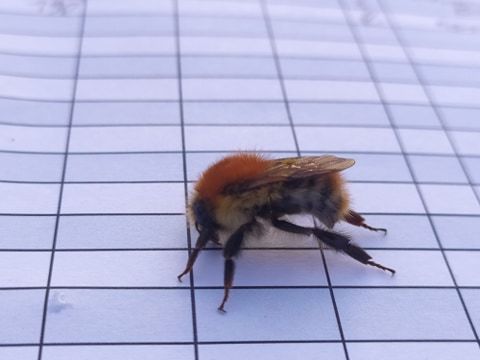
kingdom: Animalia
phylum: Arthropoda
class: Insecta
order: Hymenoptera
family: Apidae
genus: Bombus
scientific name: Bombus pascuorum
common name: Common carder bee
